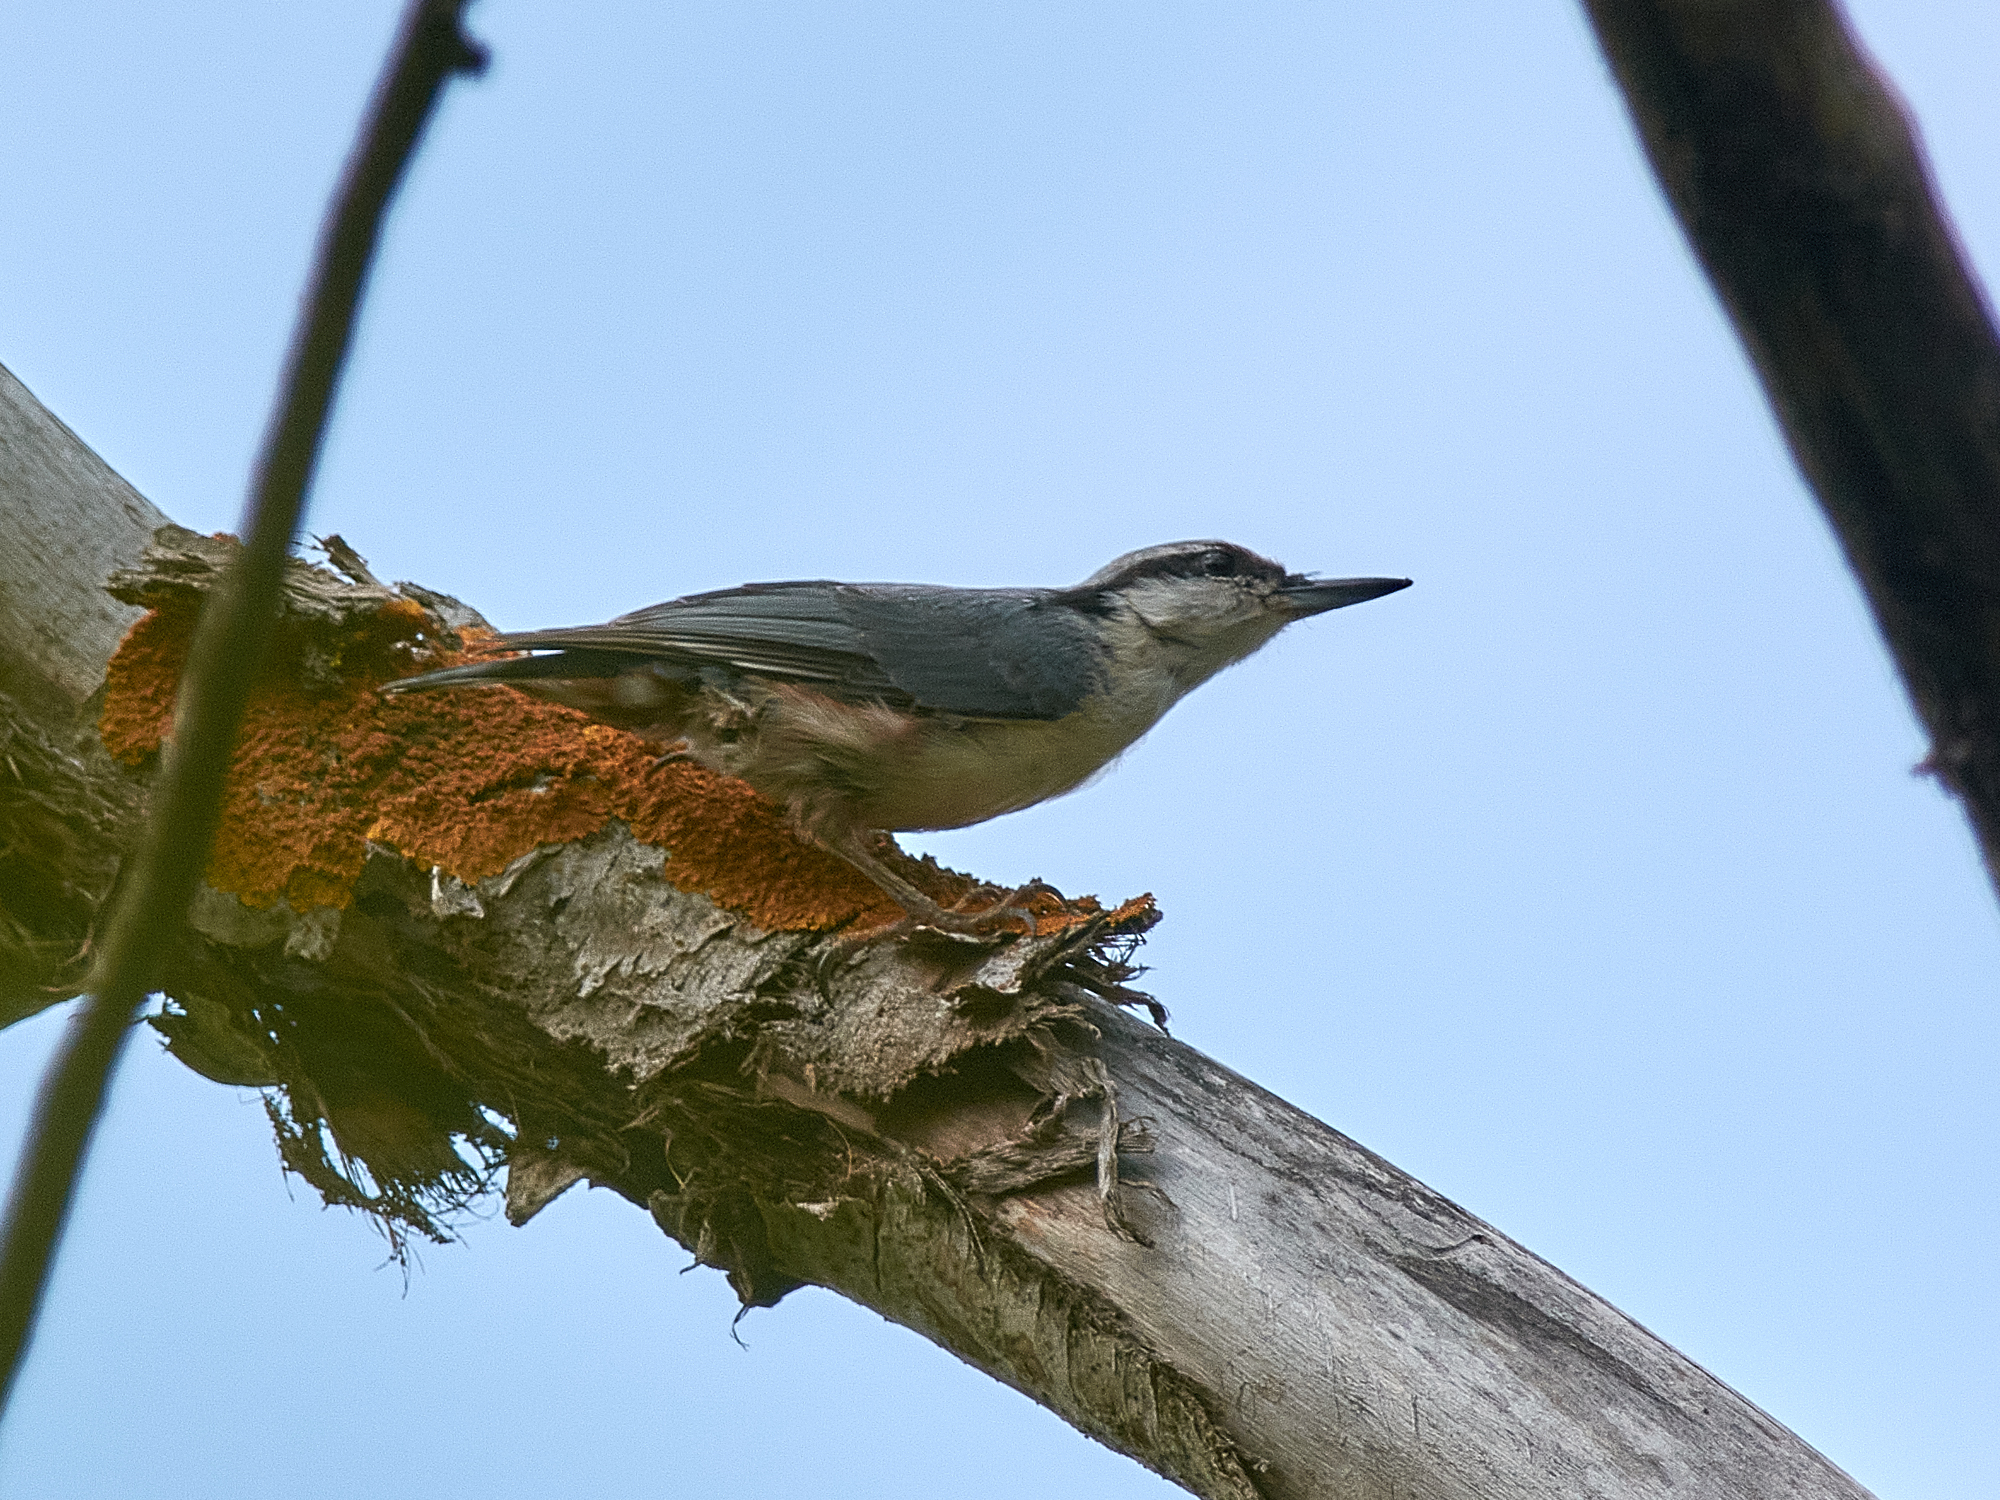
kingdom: Animalia
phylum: Chordata
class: Aves
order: Passeriformes
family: Sittidae
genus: Sitta
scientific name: Sitta europaea
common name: Eurasian nuthatch
